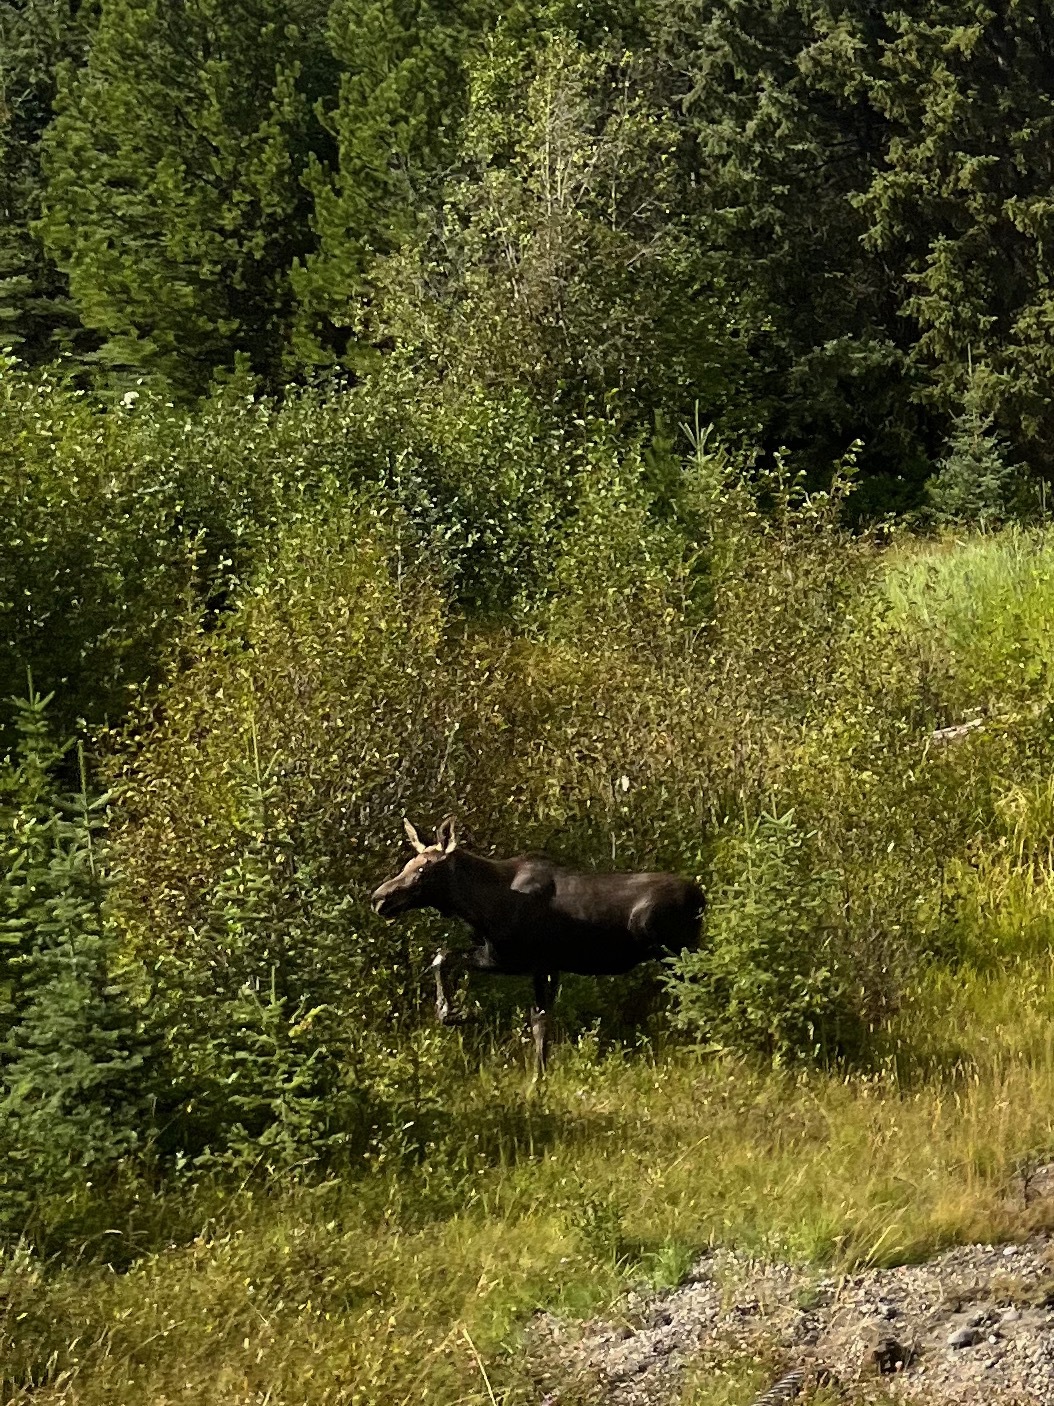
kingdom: Animalia
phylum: Chordata
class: Mammalia
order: Artiodactyla
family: Cervidae
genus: Alces
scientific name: Alces alces
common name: Moose
